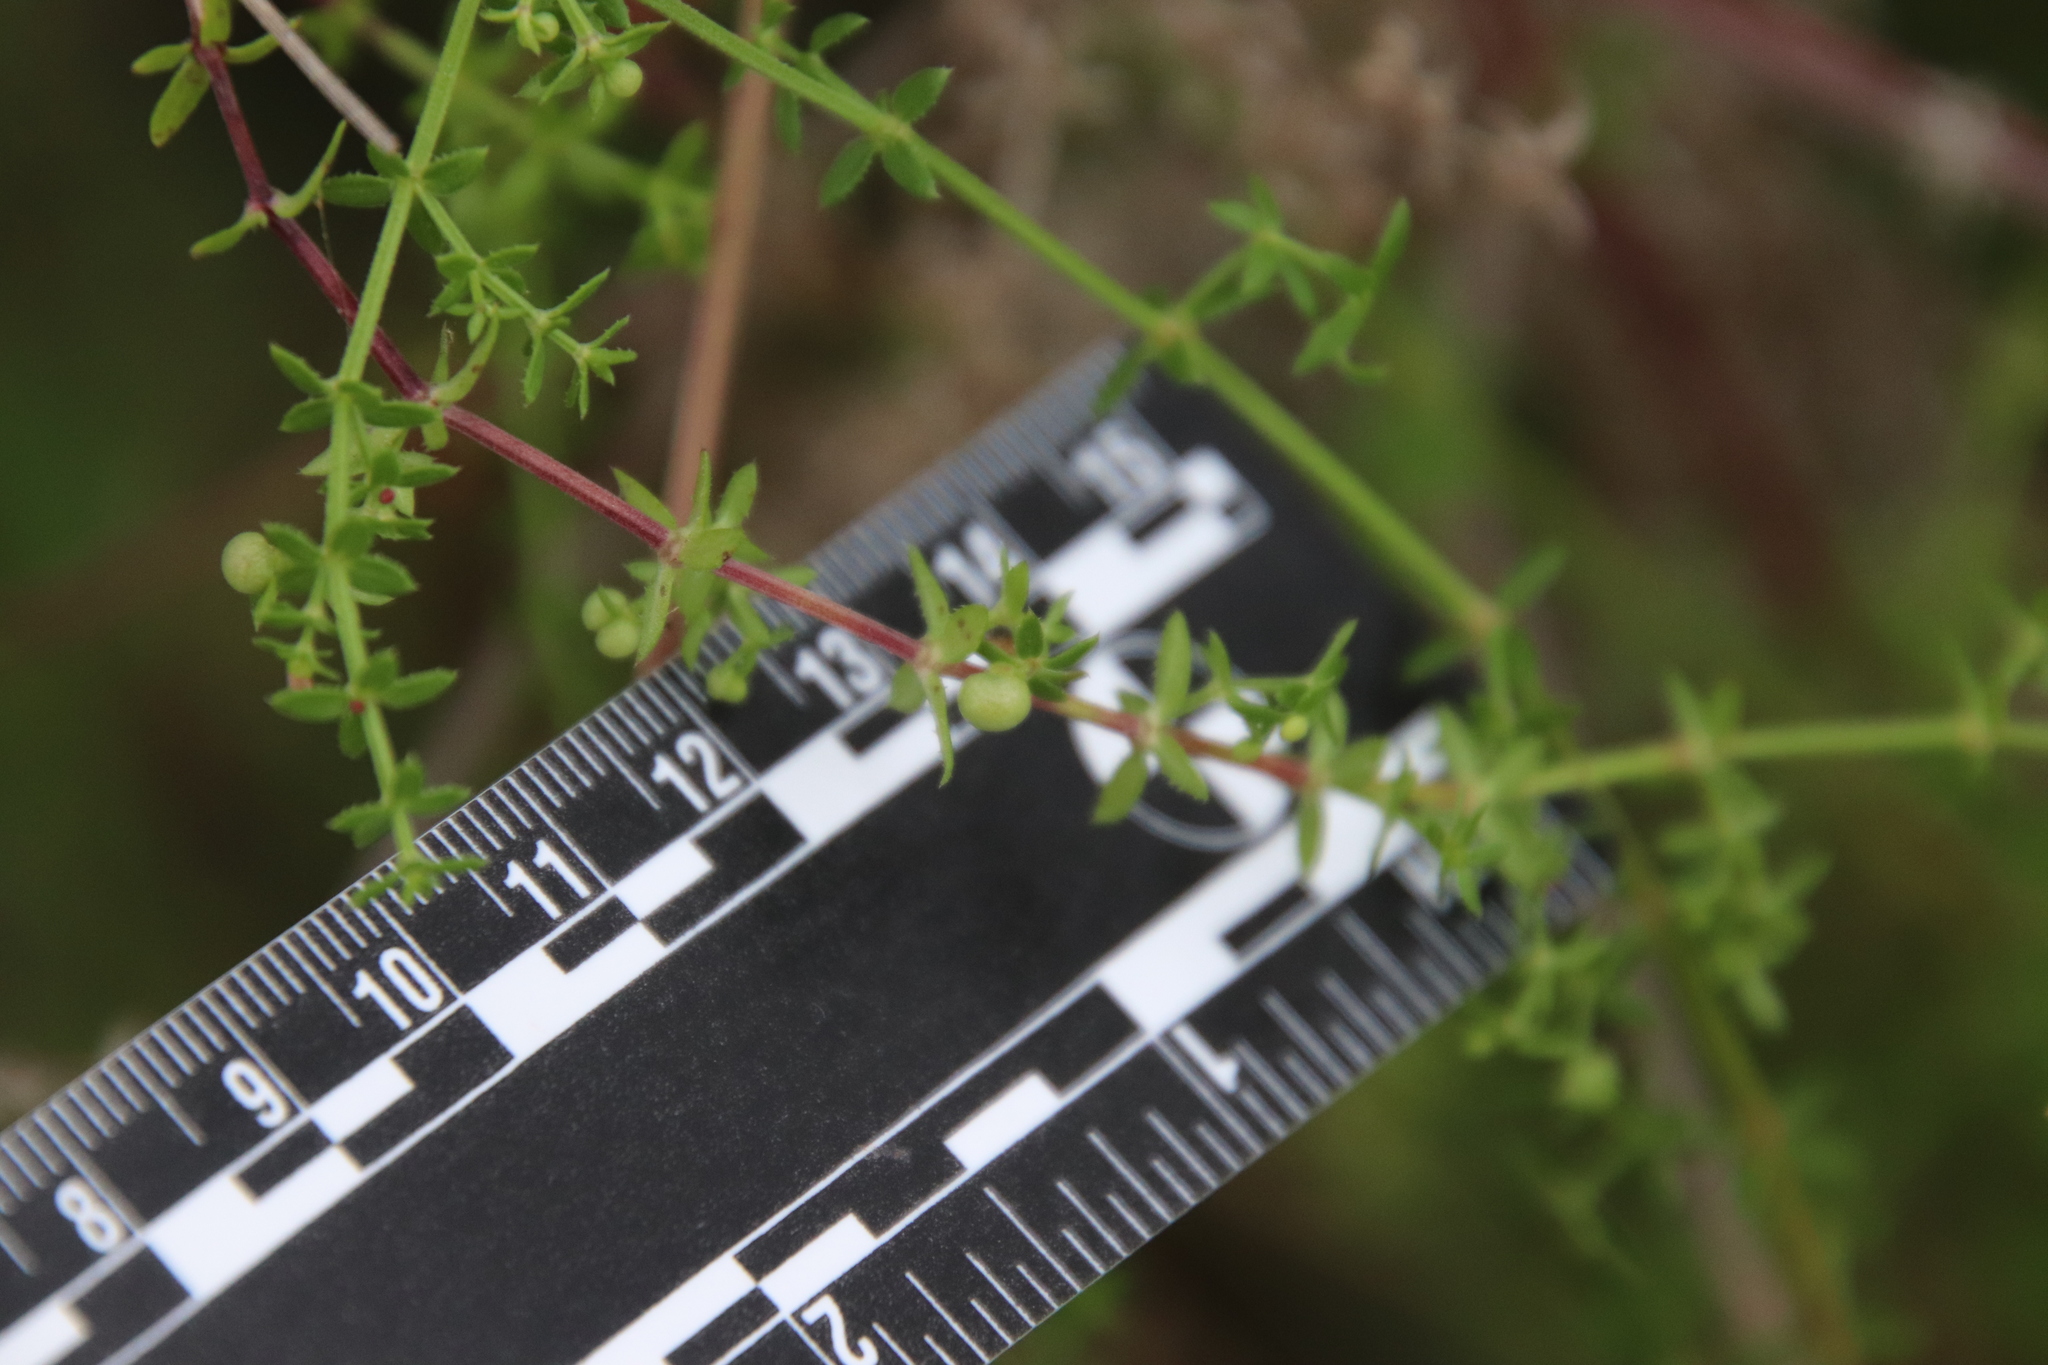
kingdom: Plantae
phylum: Tracheophyta
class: Magnoliopsida
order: Gentianales
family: Rubiaceae
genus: Galium
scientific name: Galium porrigens
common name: Climbing bedstraw
